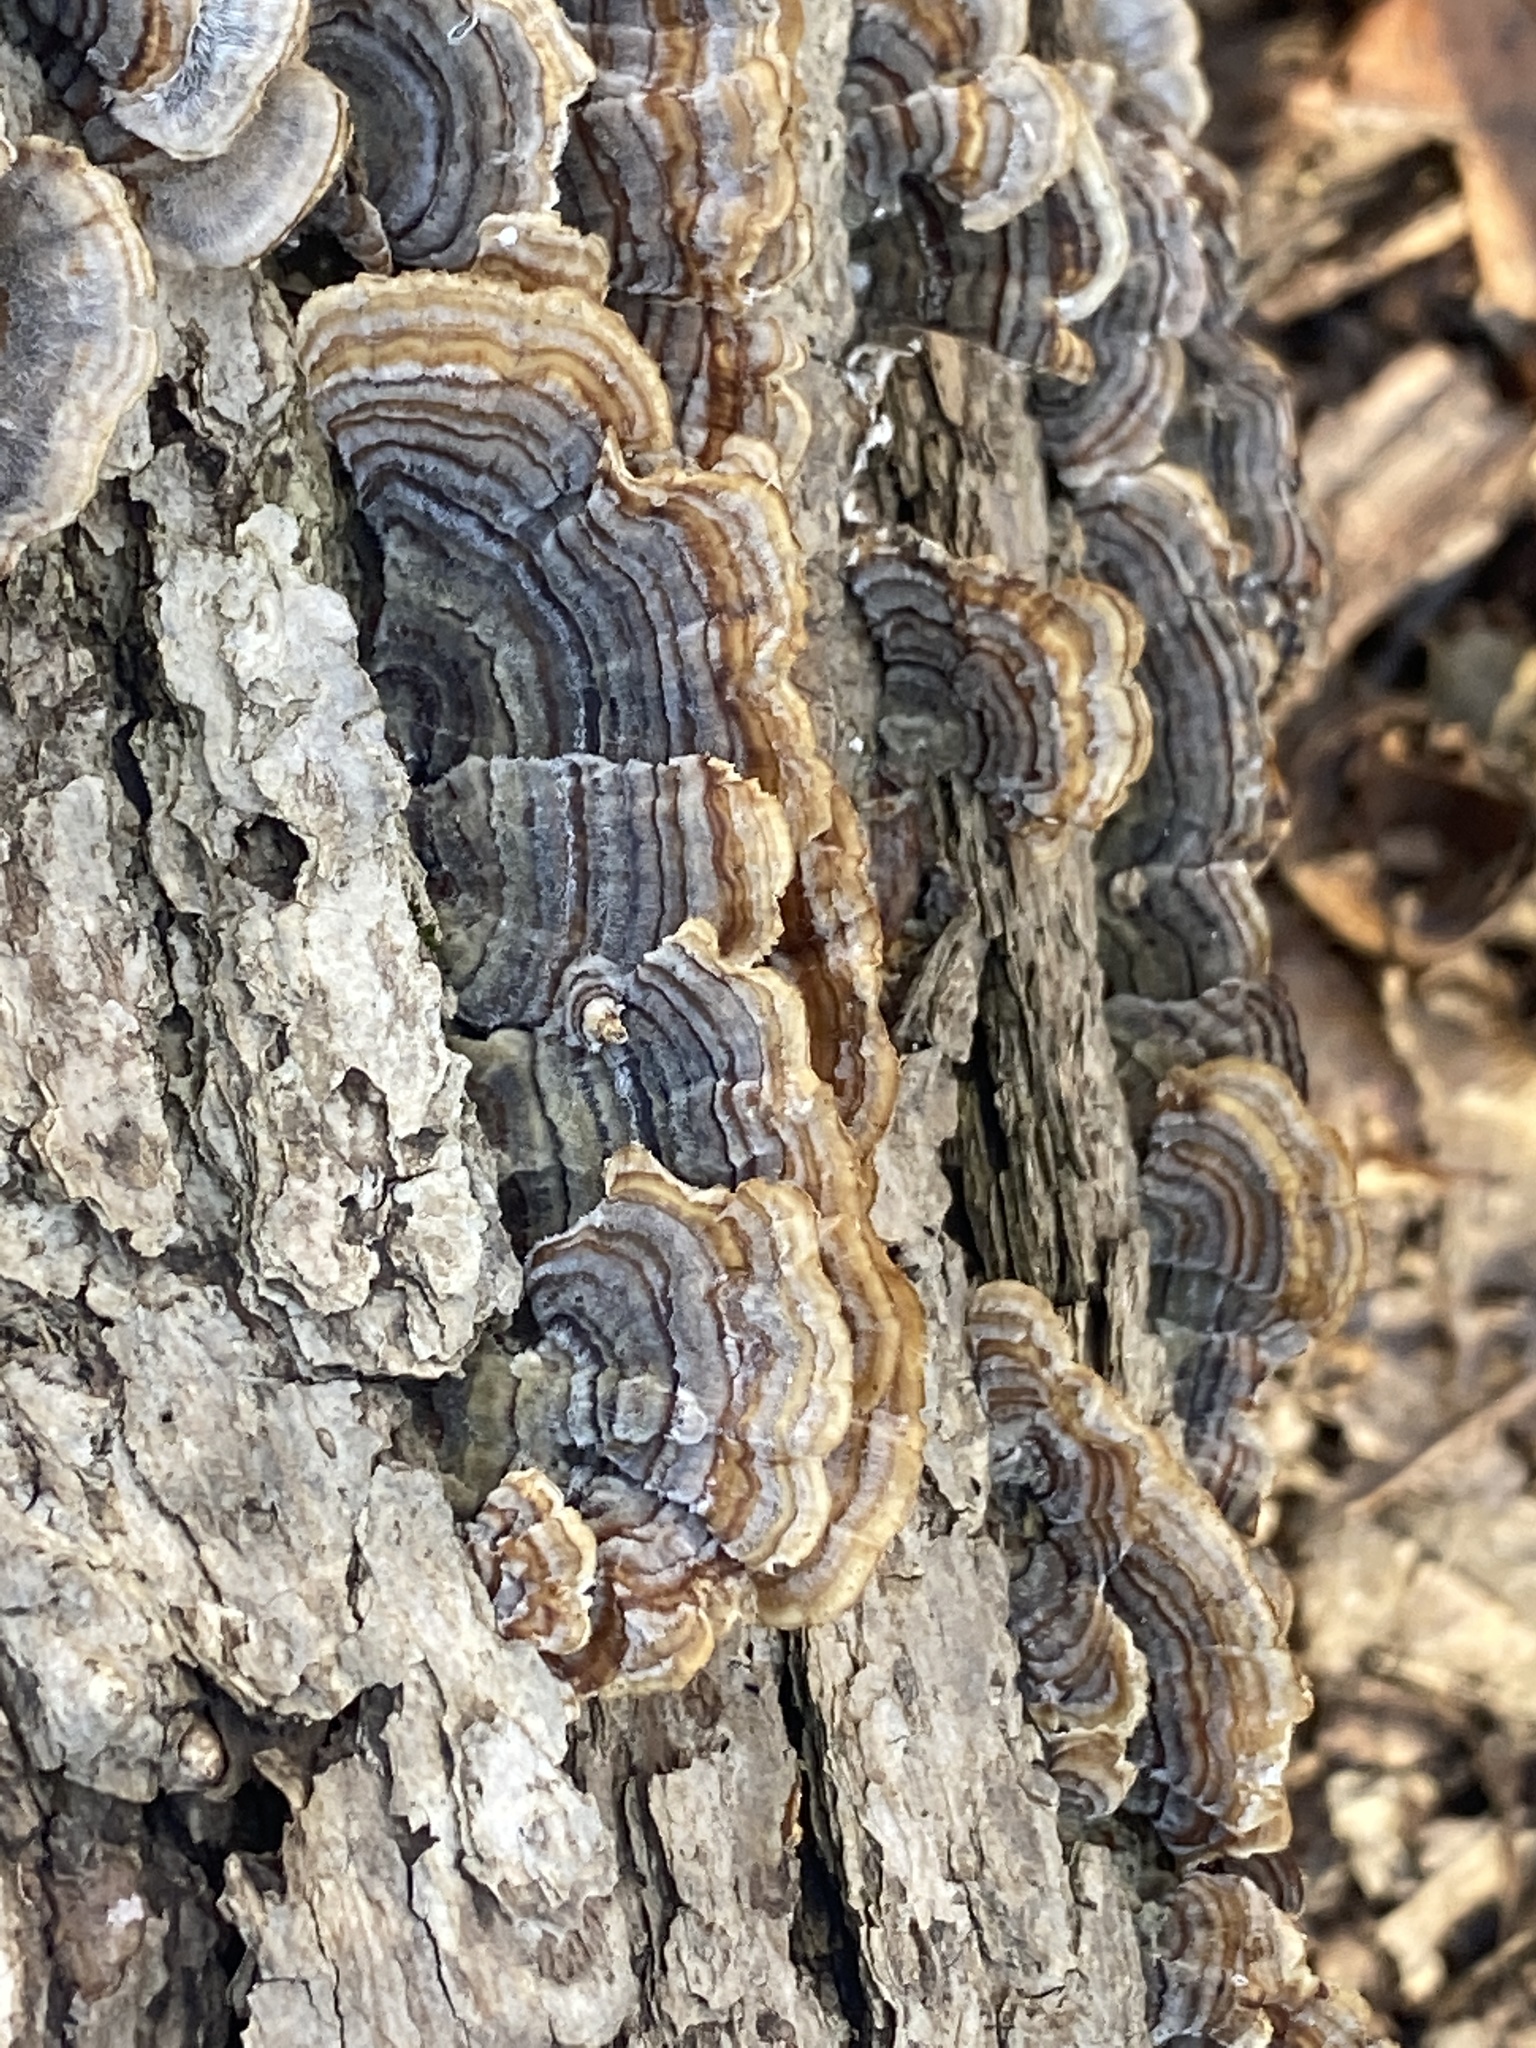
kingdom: Fungi
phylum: Basidiomycota
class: Agaricomycetes
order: Polyporales
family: Polyporaceae
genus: Trametes
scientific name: Trametes versicolor
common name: Turkeytail
